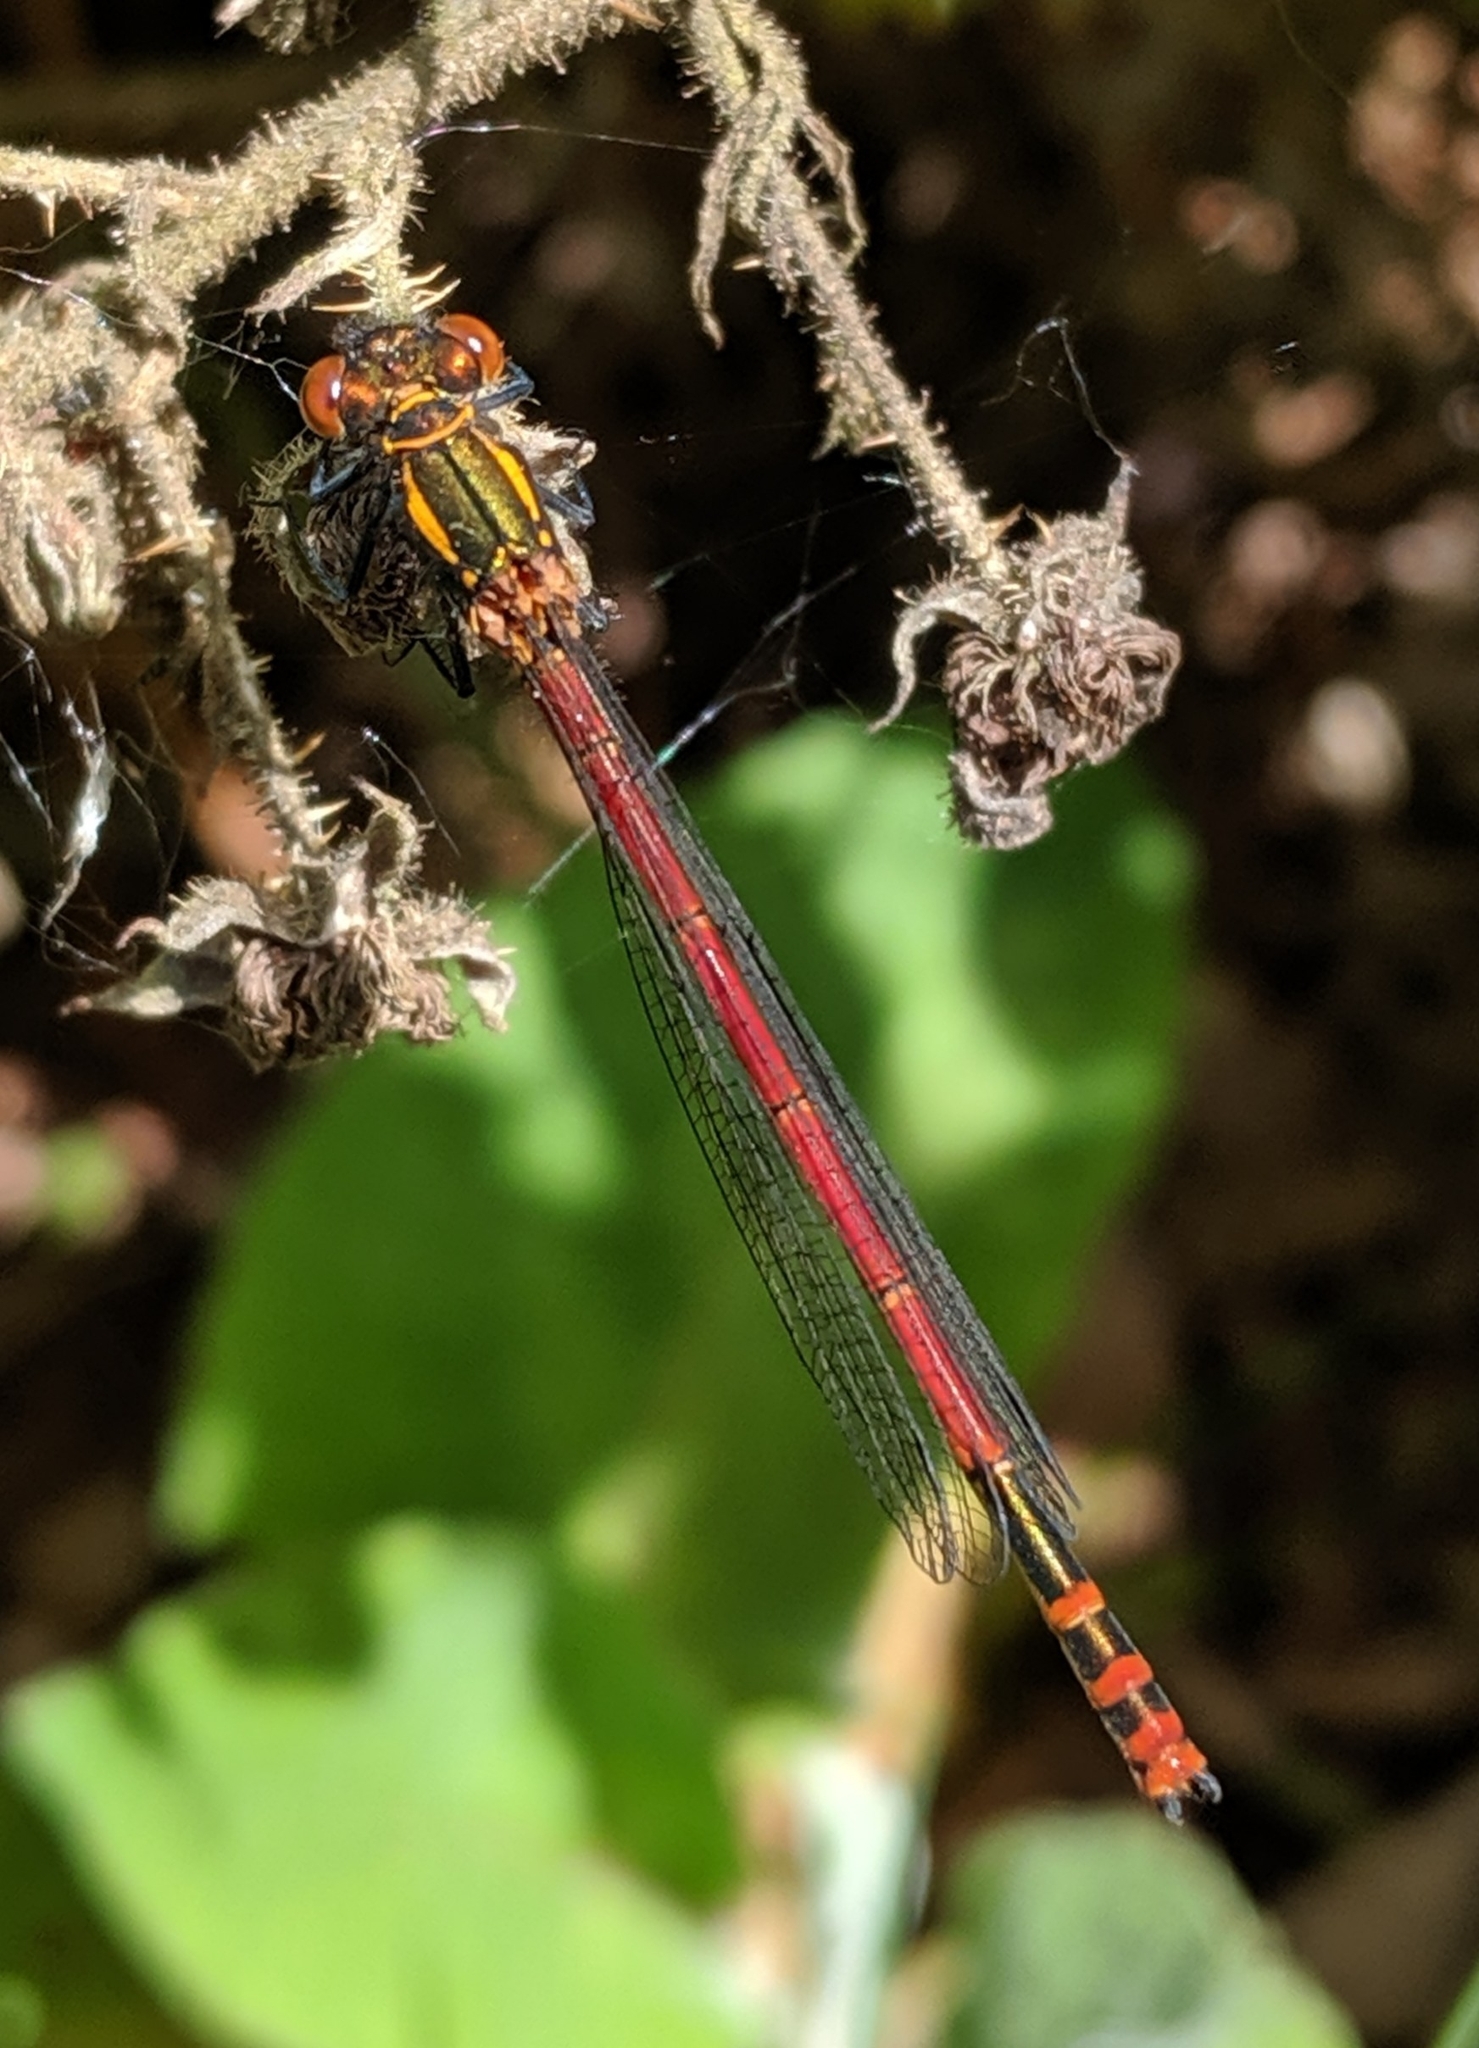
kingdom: Animalia
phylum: Arthropoda
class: Insecta
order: Odonata
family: Coenagrionidae
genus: Pyrrhosoma
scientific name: Pyrrhosoma nymphula
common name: Large red damsel
